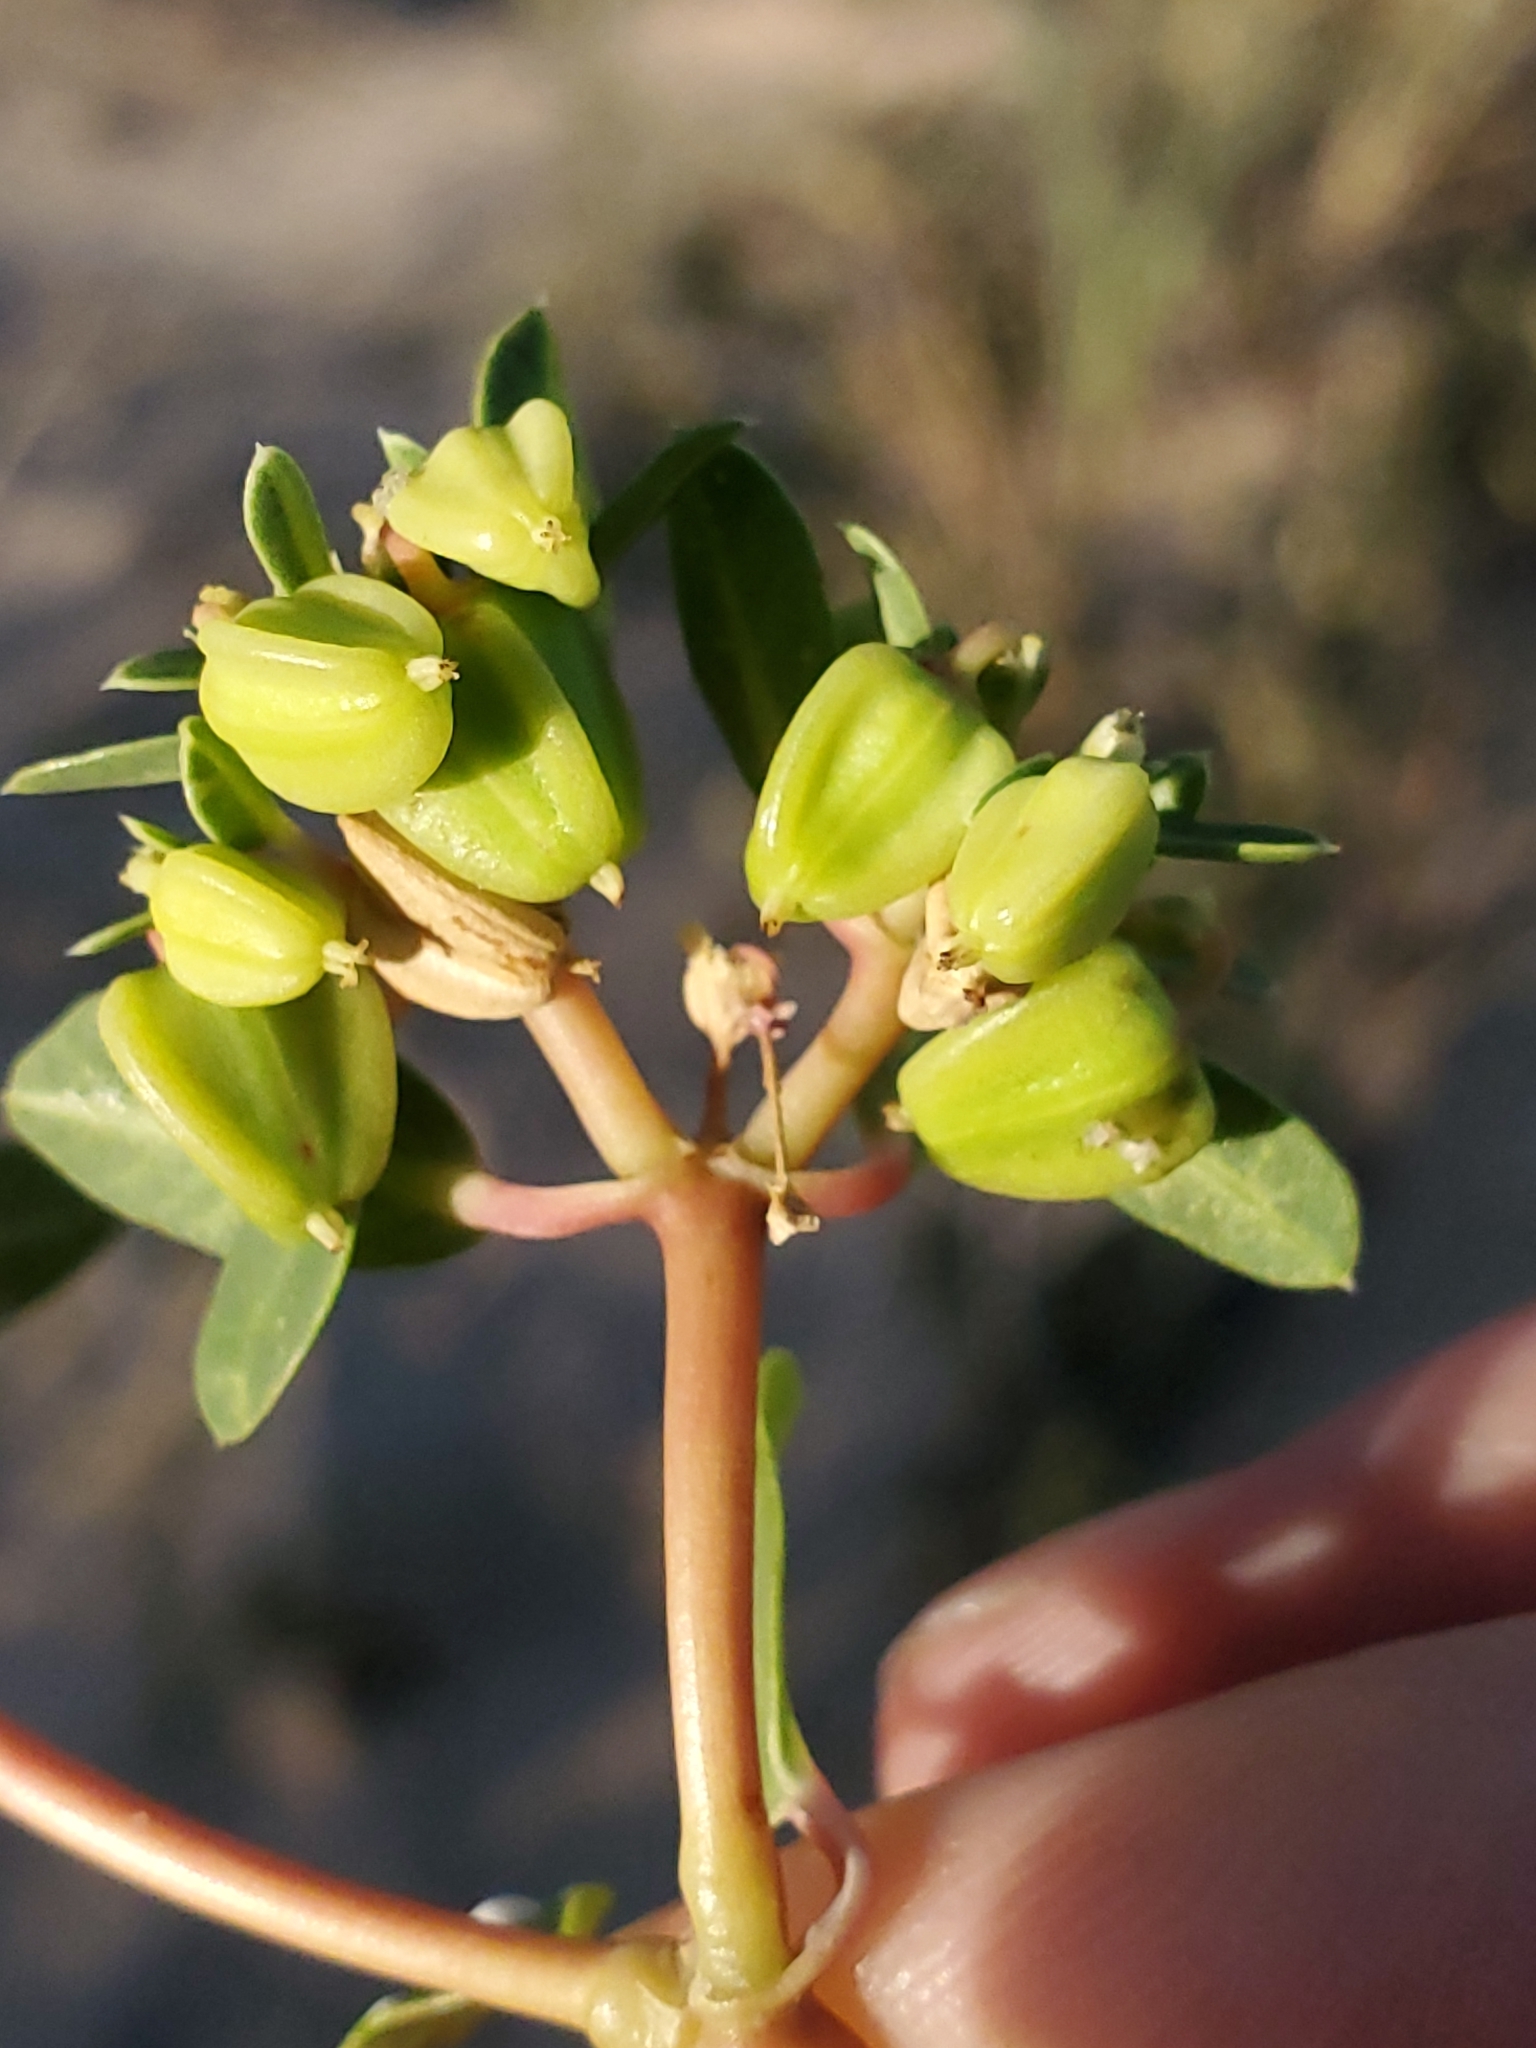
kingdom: Plantae
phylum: Tracheophyta
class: Magnoliopsida
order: Malpighiales
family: Euphorbiaceae
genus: Euphorbia
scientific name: Euphorbia carunculata
